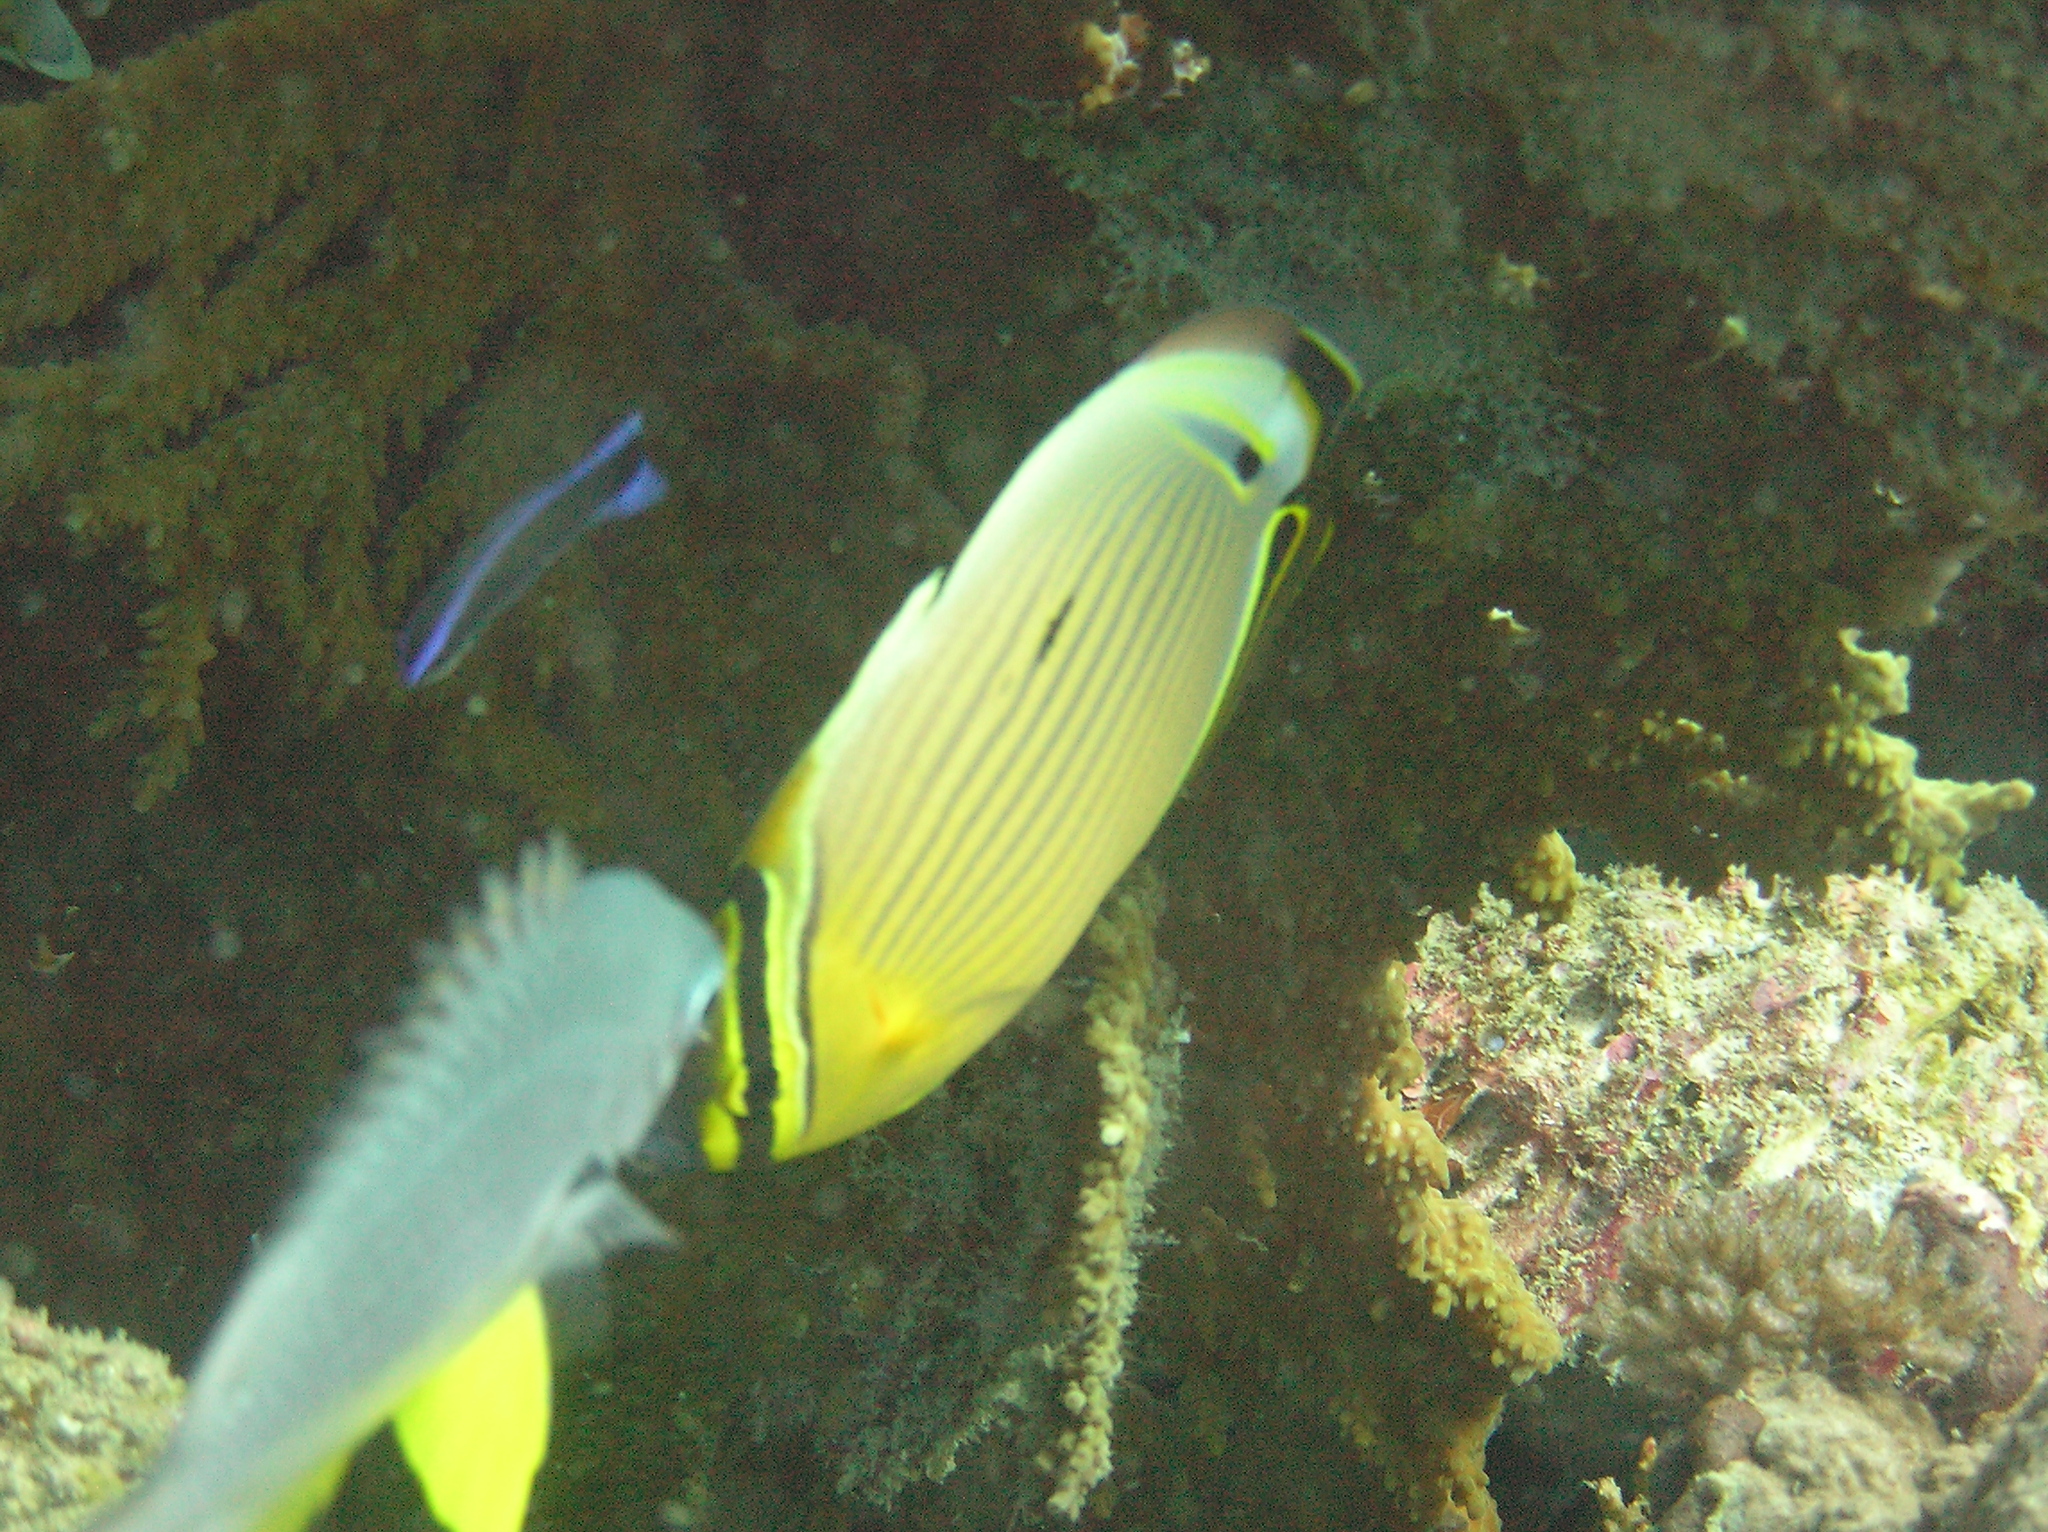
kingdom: Animalia
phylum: Chordata
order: Perciformes
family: Chaetodontidae
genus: Chaetodon
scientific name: Chaetodon lunulatus
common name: Redfin butterflyfish
